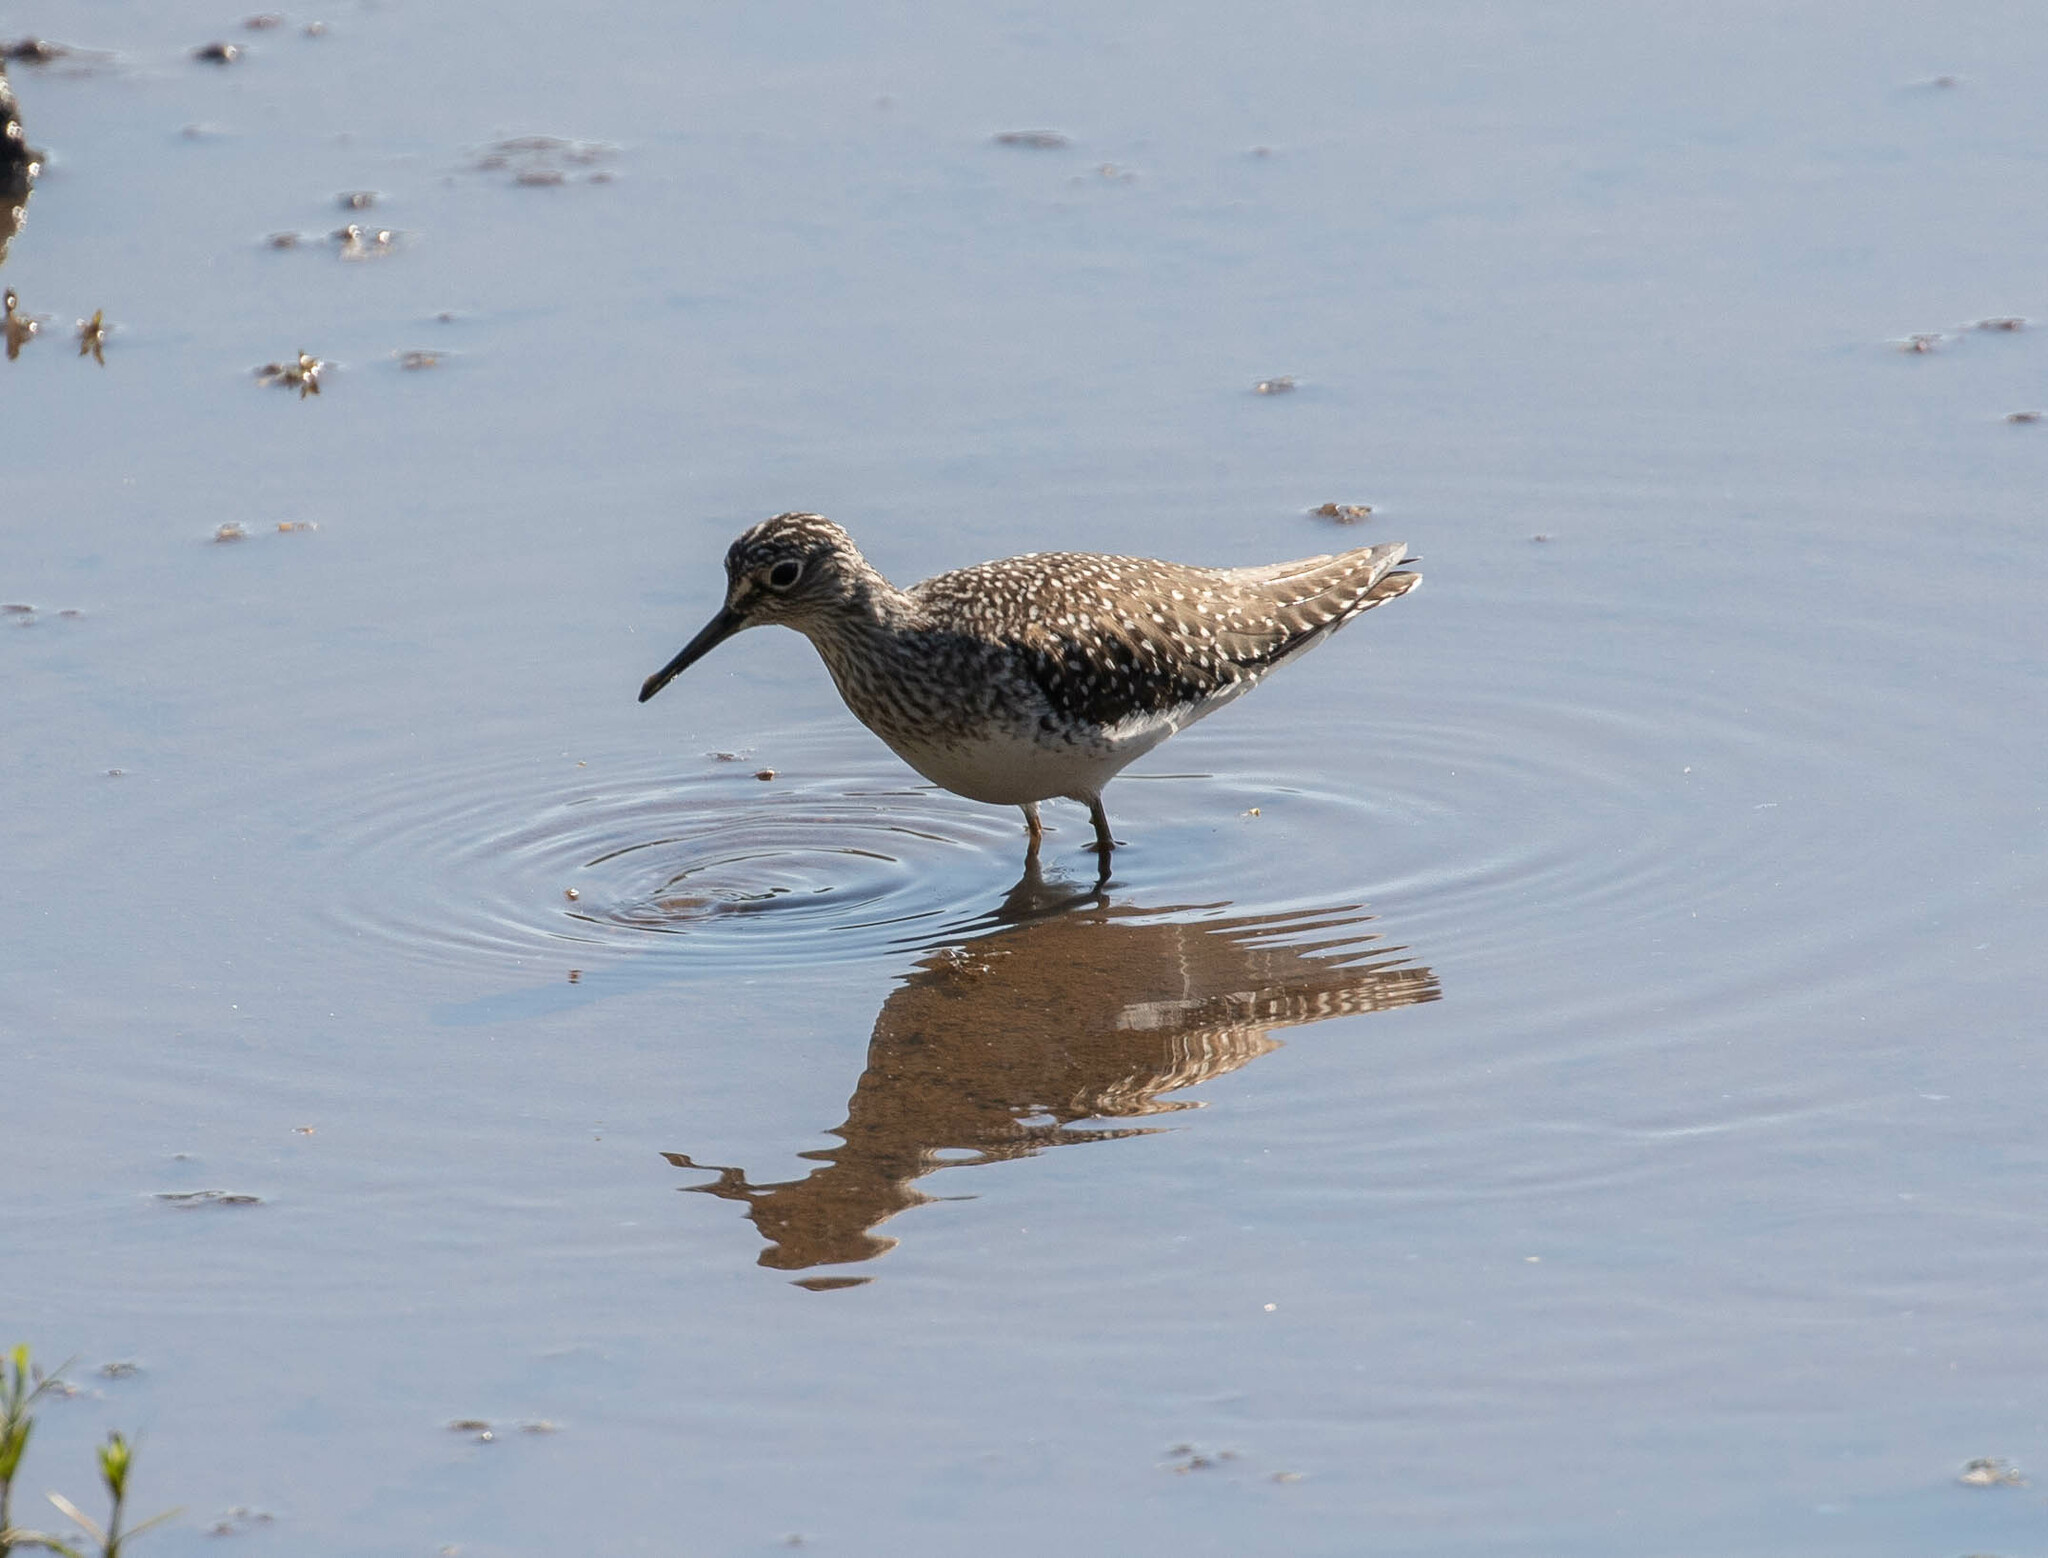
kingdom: Animalia
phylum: Chordata
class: Aves
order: Charadriiformes
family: Scolopacidae
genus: Tringa
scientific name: Tringa solitaria
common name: Solitary sandpiper
